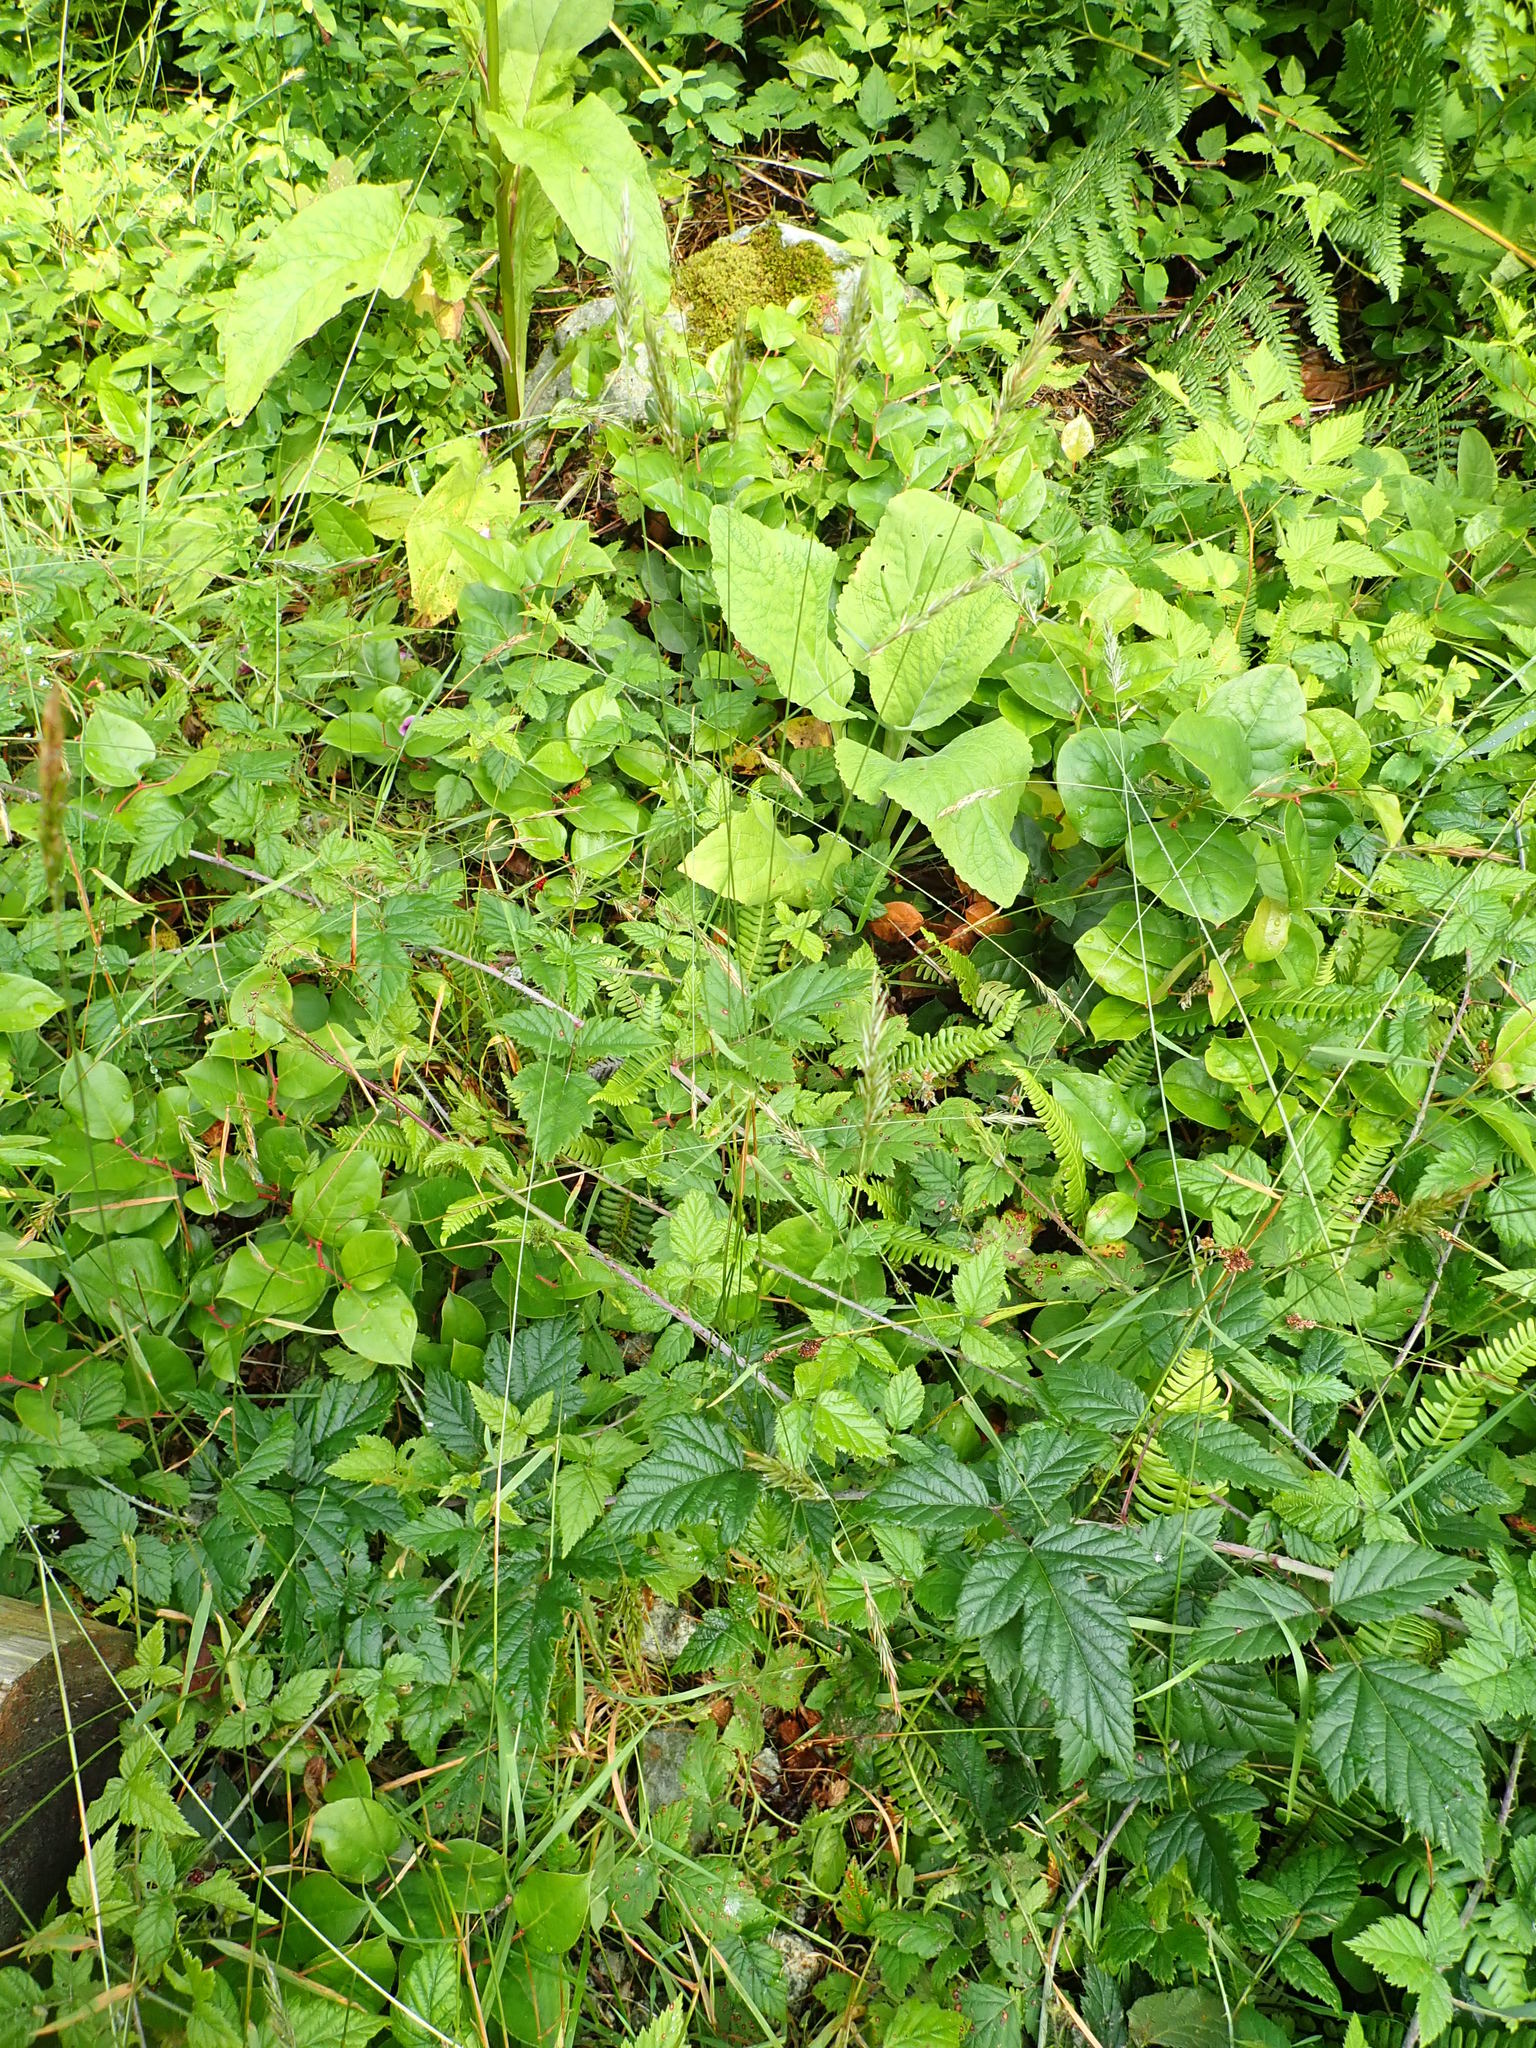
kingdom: Plantae
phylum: Tracheophyta
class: Liliopsida
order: Poales
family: Poaceae
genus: Anthoxanthum
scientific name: Anthoxanthum odoratum
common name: Sweet vernalgrass
